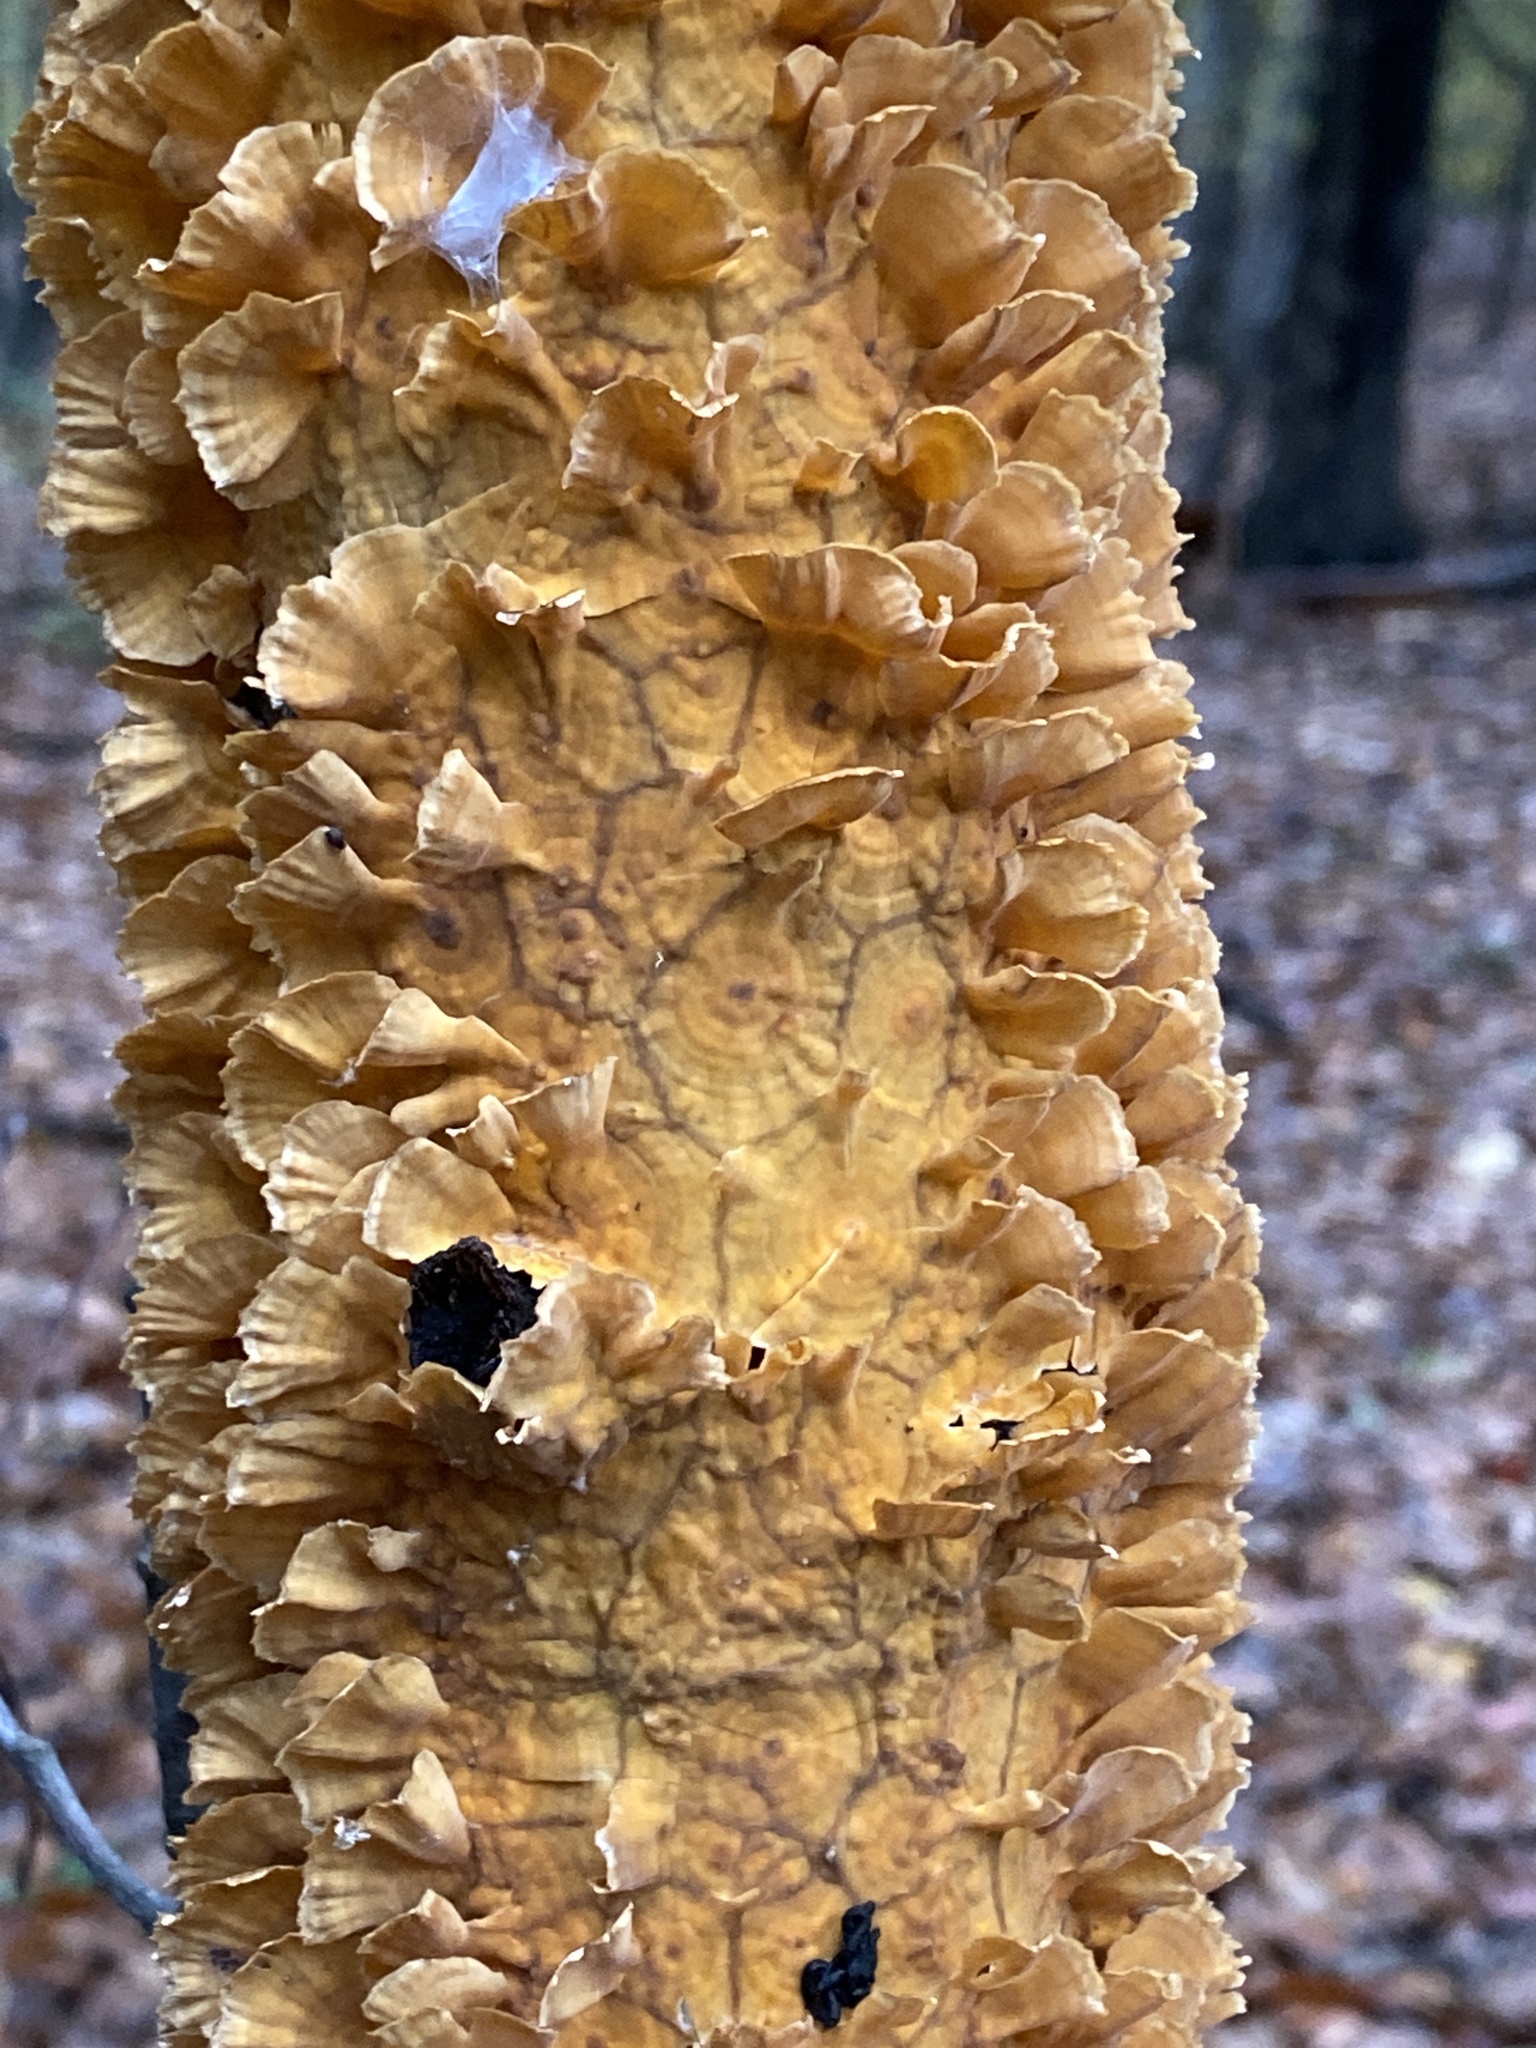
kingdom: Fungi
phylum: Basidiomycota
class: Agaricomycetes
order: Russulales
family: Stereaceae
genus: Stereum
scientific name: Stereum complicatum
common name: Crowded parchment
